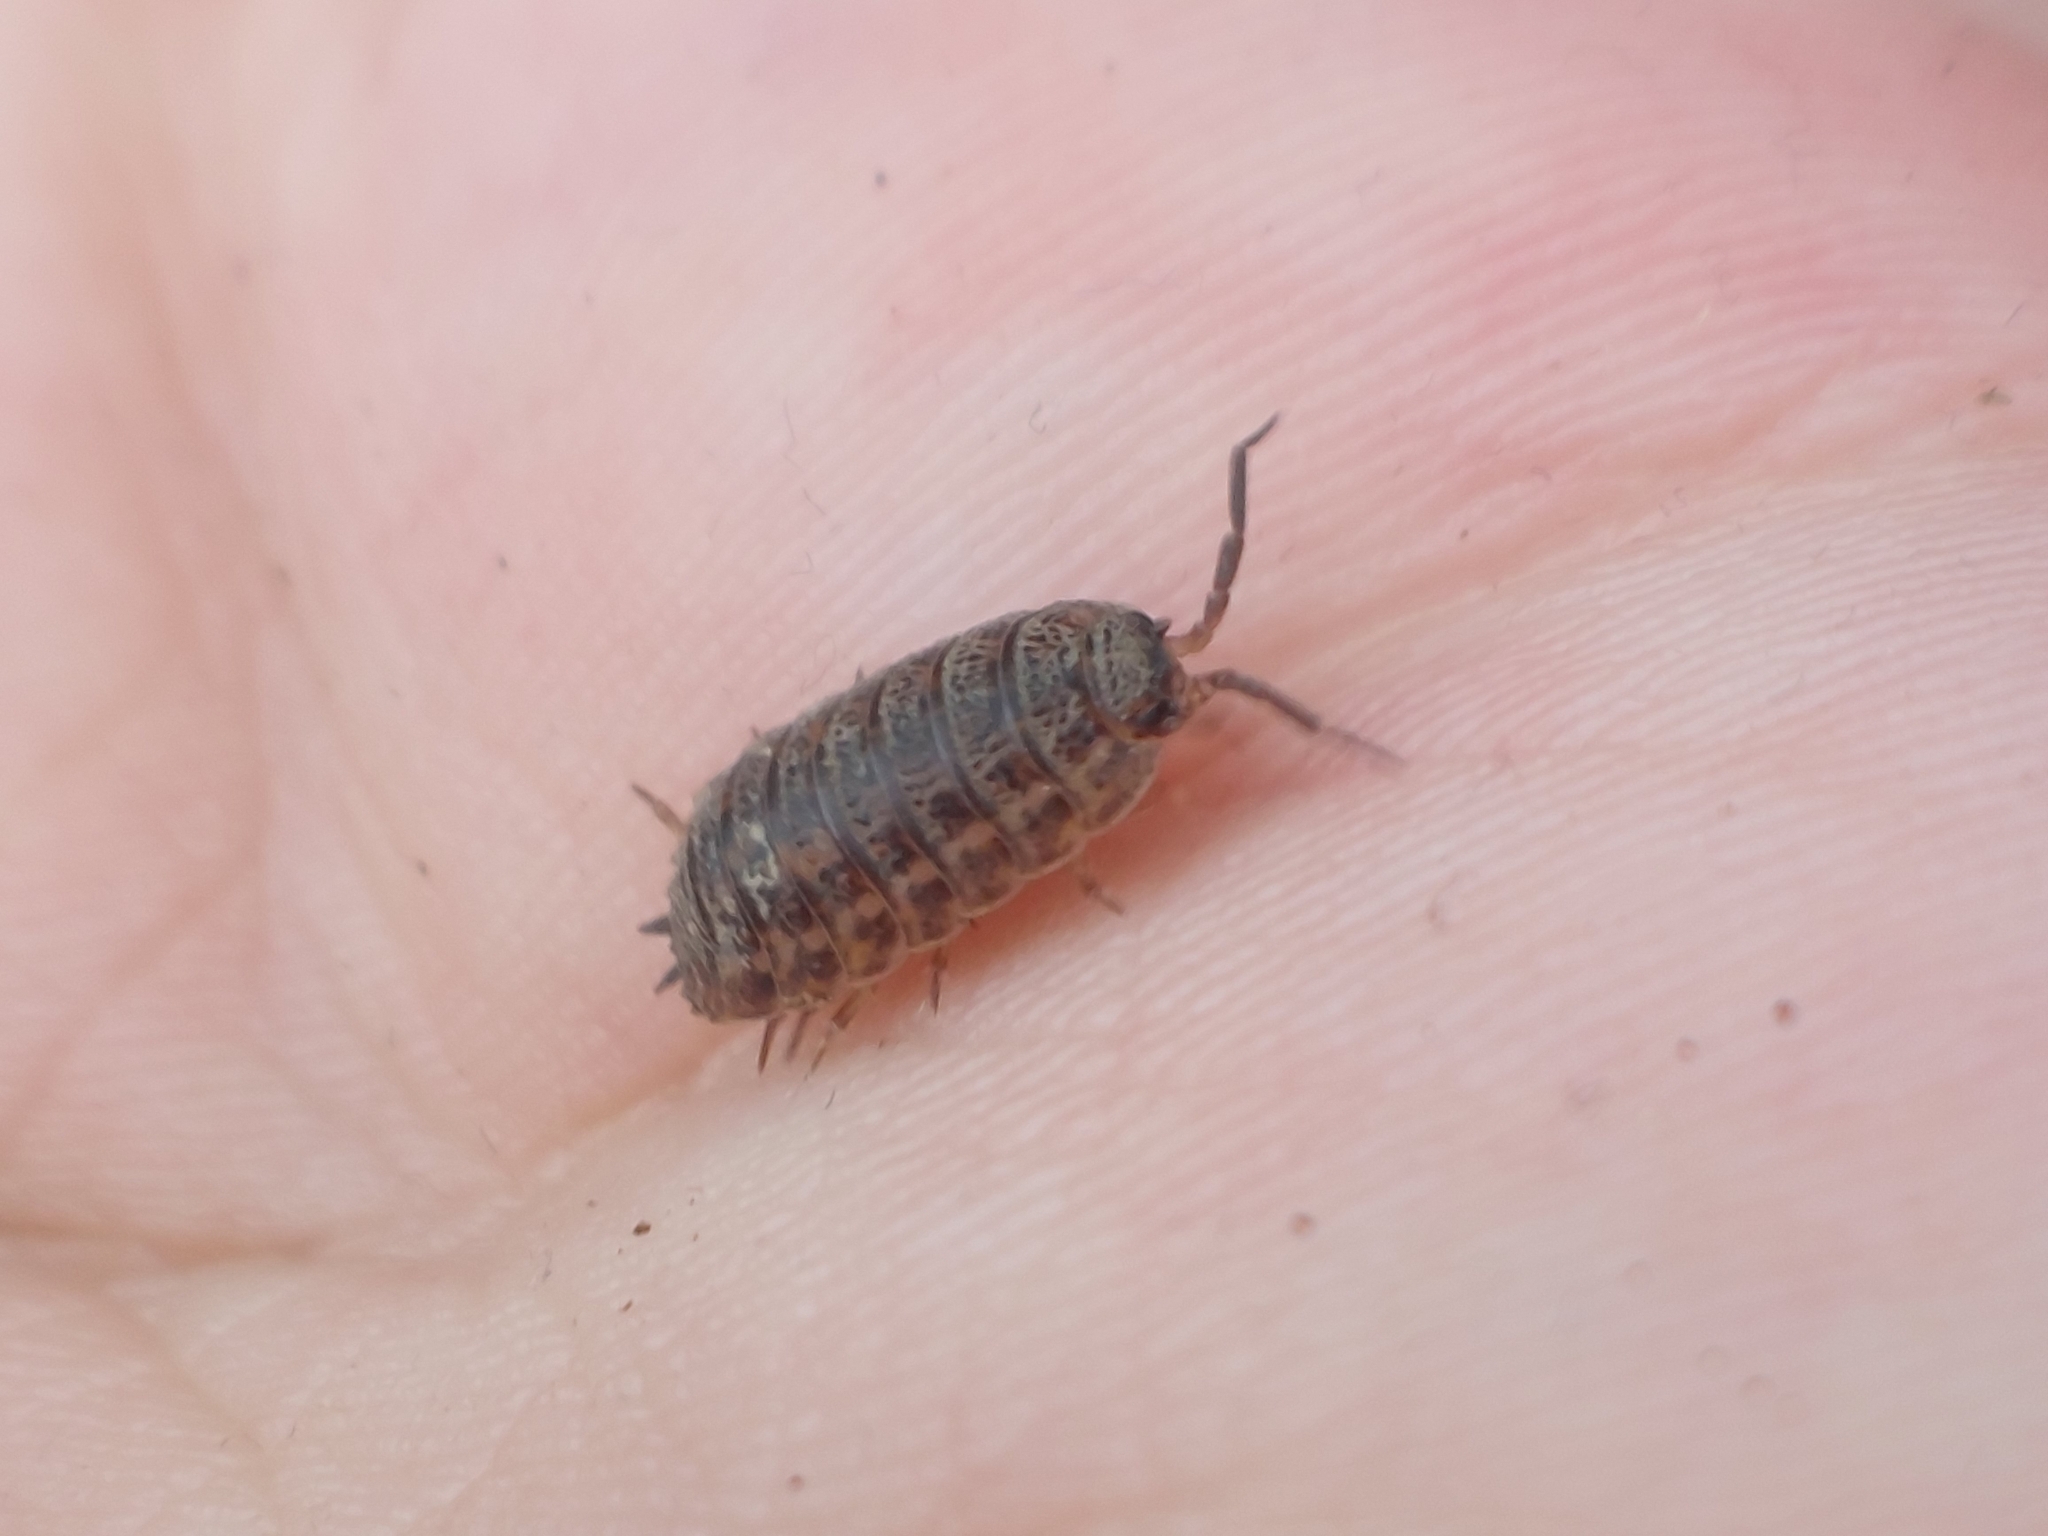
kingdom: Animalia
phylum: Arthropoda
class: Malacostraca
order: Isopoda
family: Trachelipodidae
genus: Trachelipus
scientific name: Trachelipus rathkii
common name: Isopod
